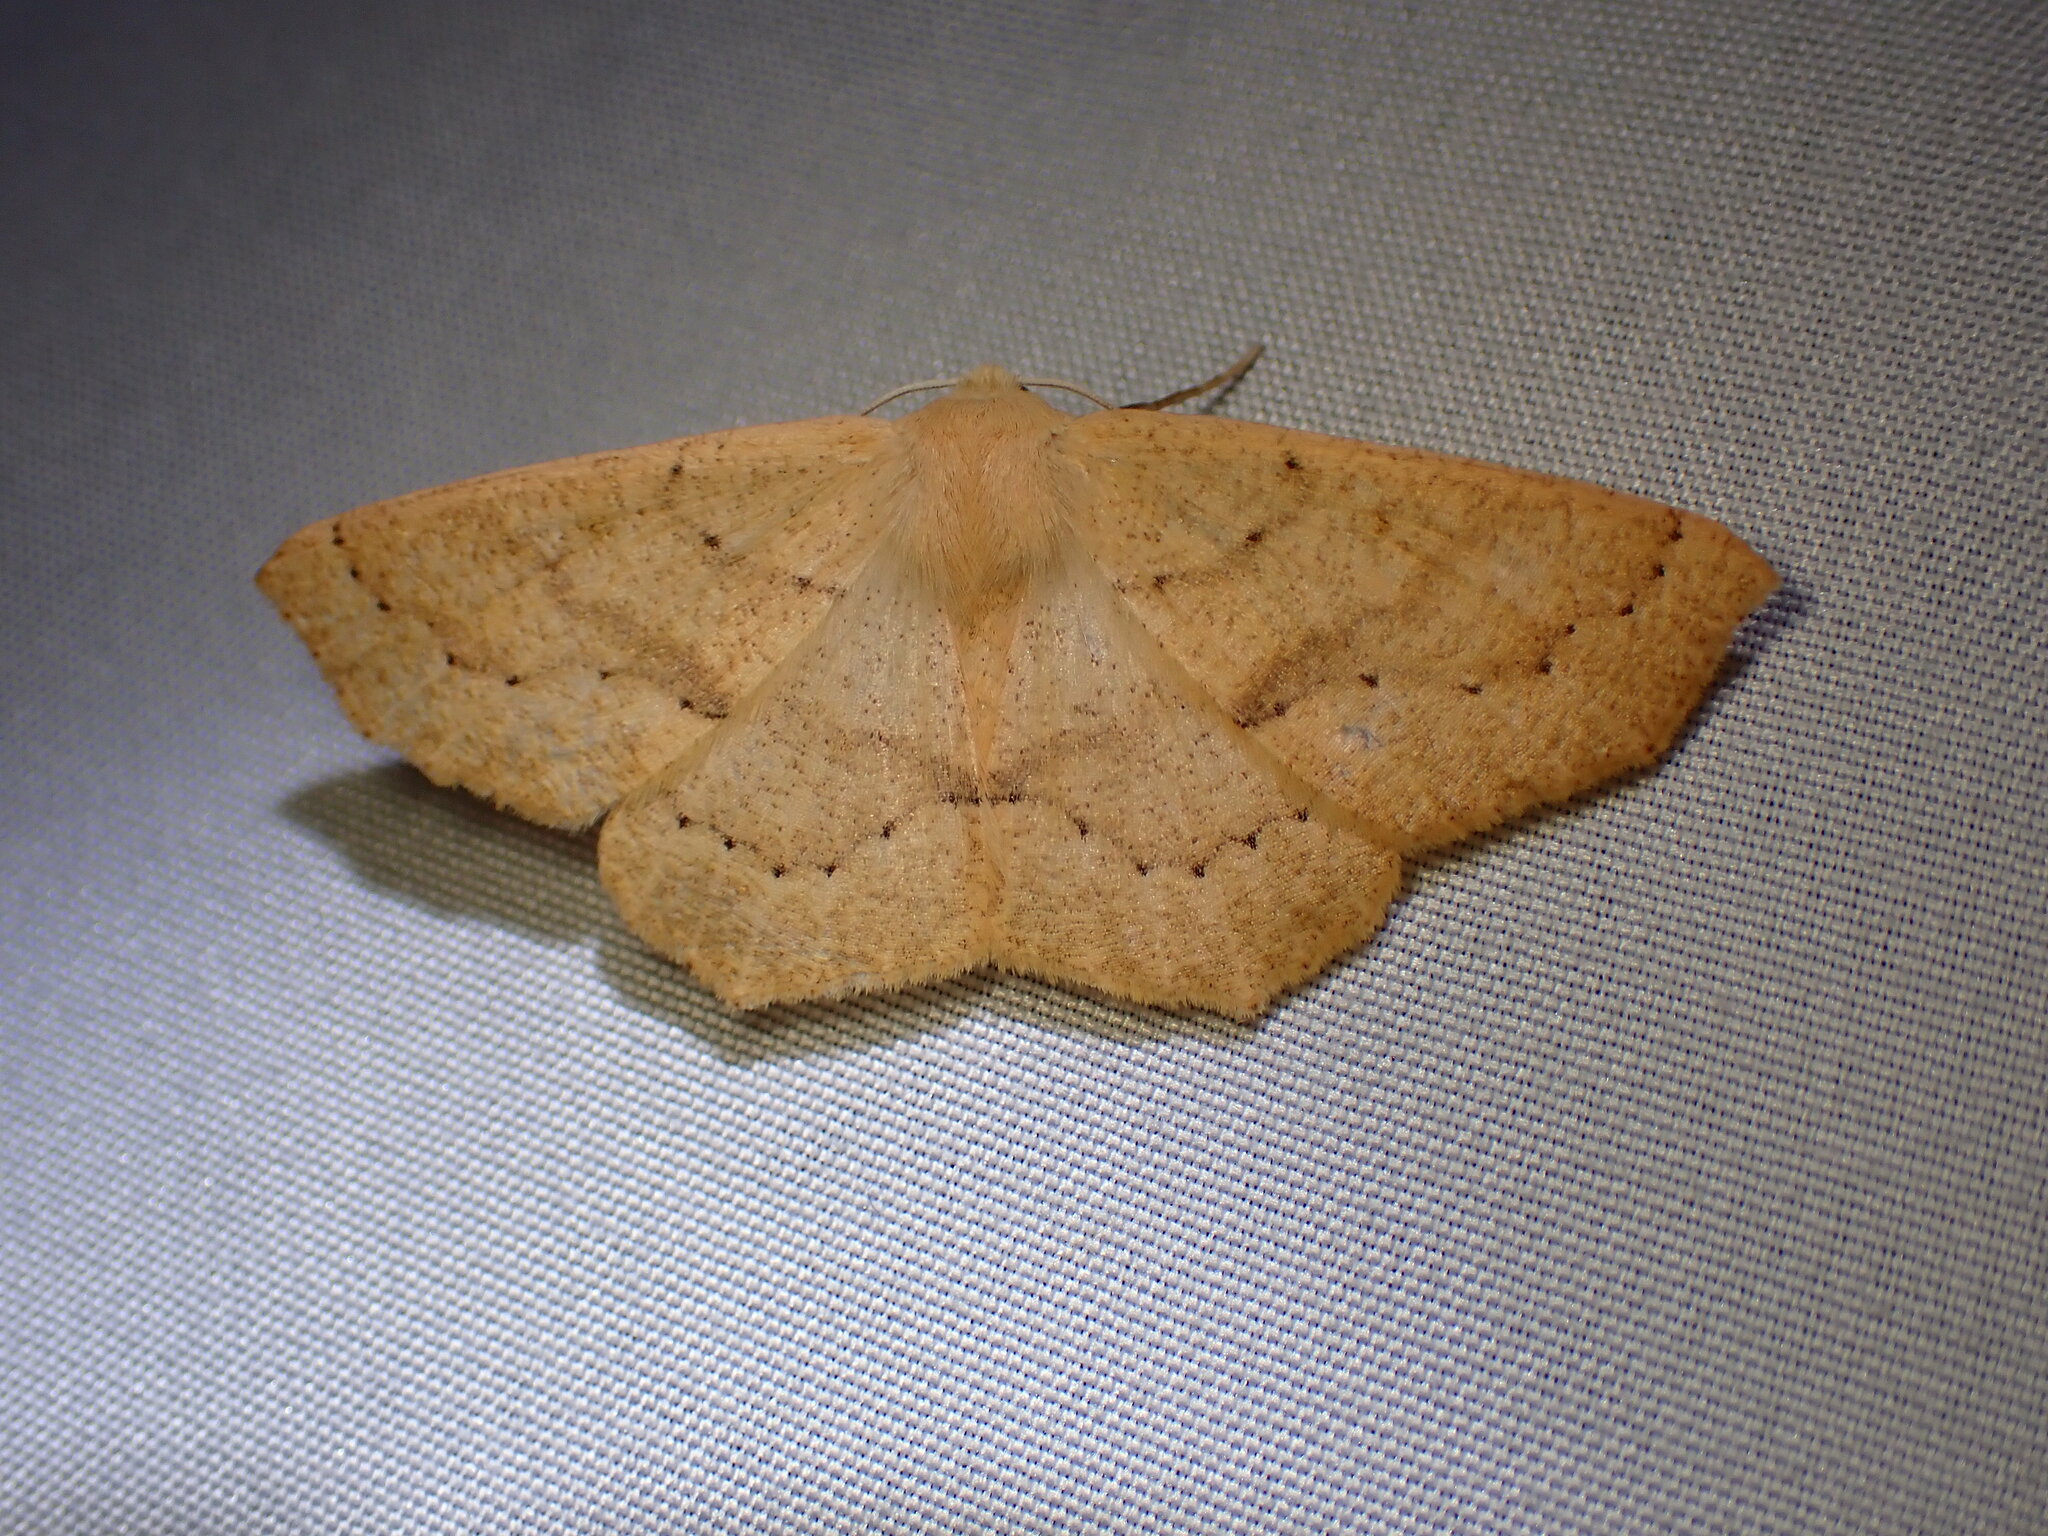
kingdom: Animalia
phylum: Arthropoda
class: Insecta
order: Lepidoptera
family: Geometridae
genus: Sabulodes
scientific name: Sabulodes aegrotata
